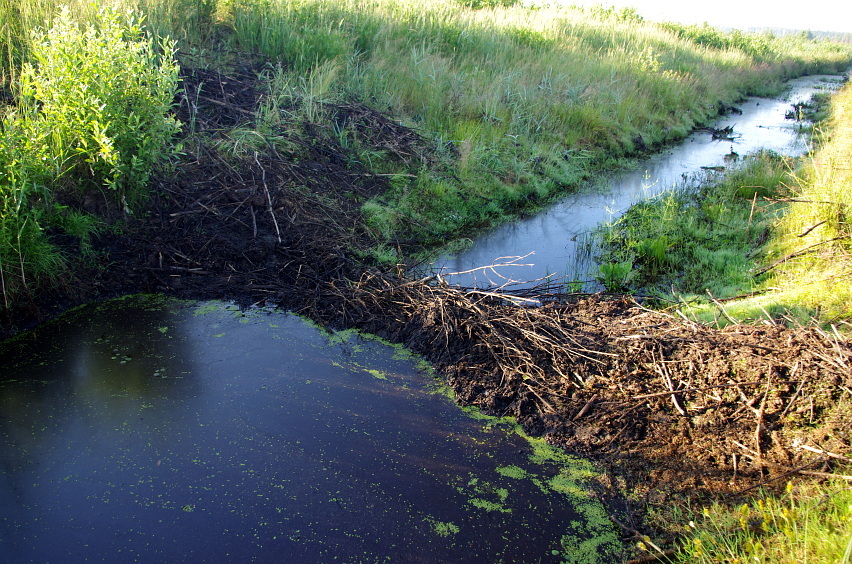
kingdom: Animalia
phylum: Chordata
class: Mammalia
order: Rodentia
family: Castoridae
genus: Castor
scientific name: Castor fiber
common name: Eurasian beaver
